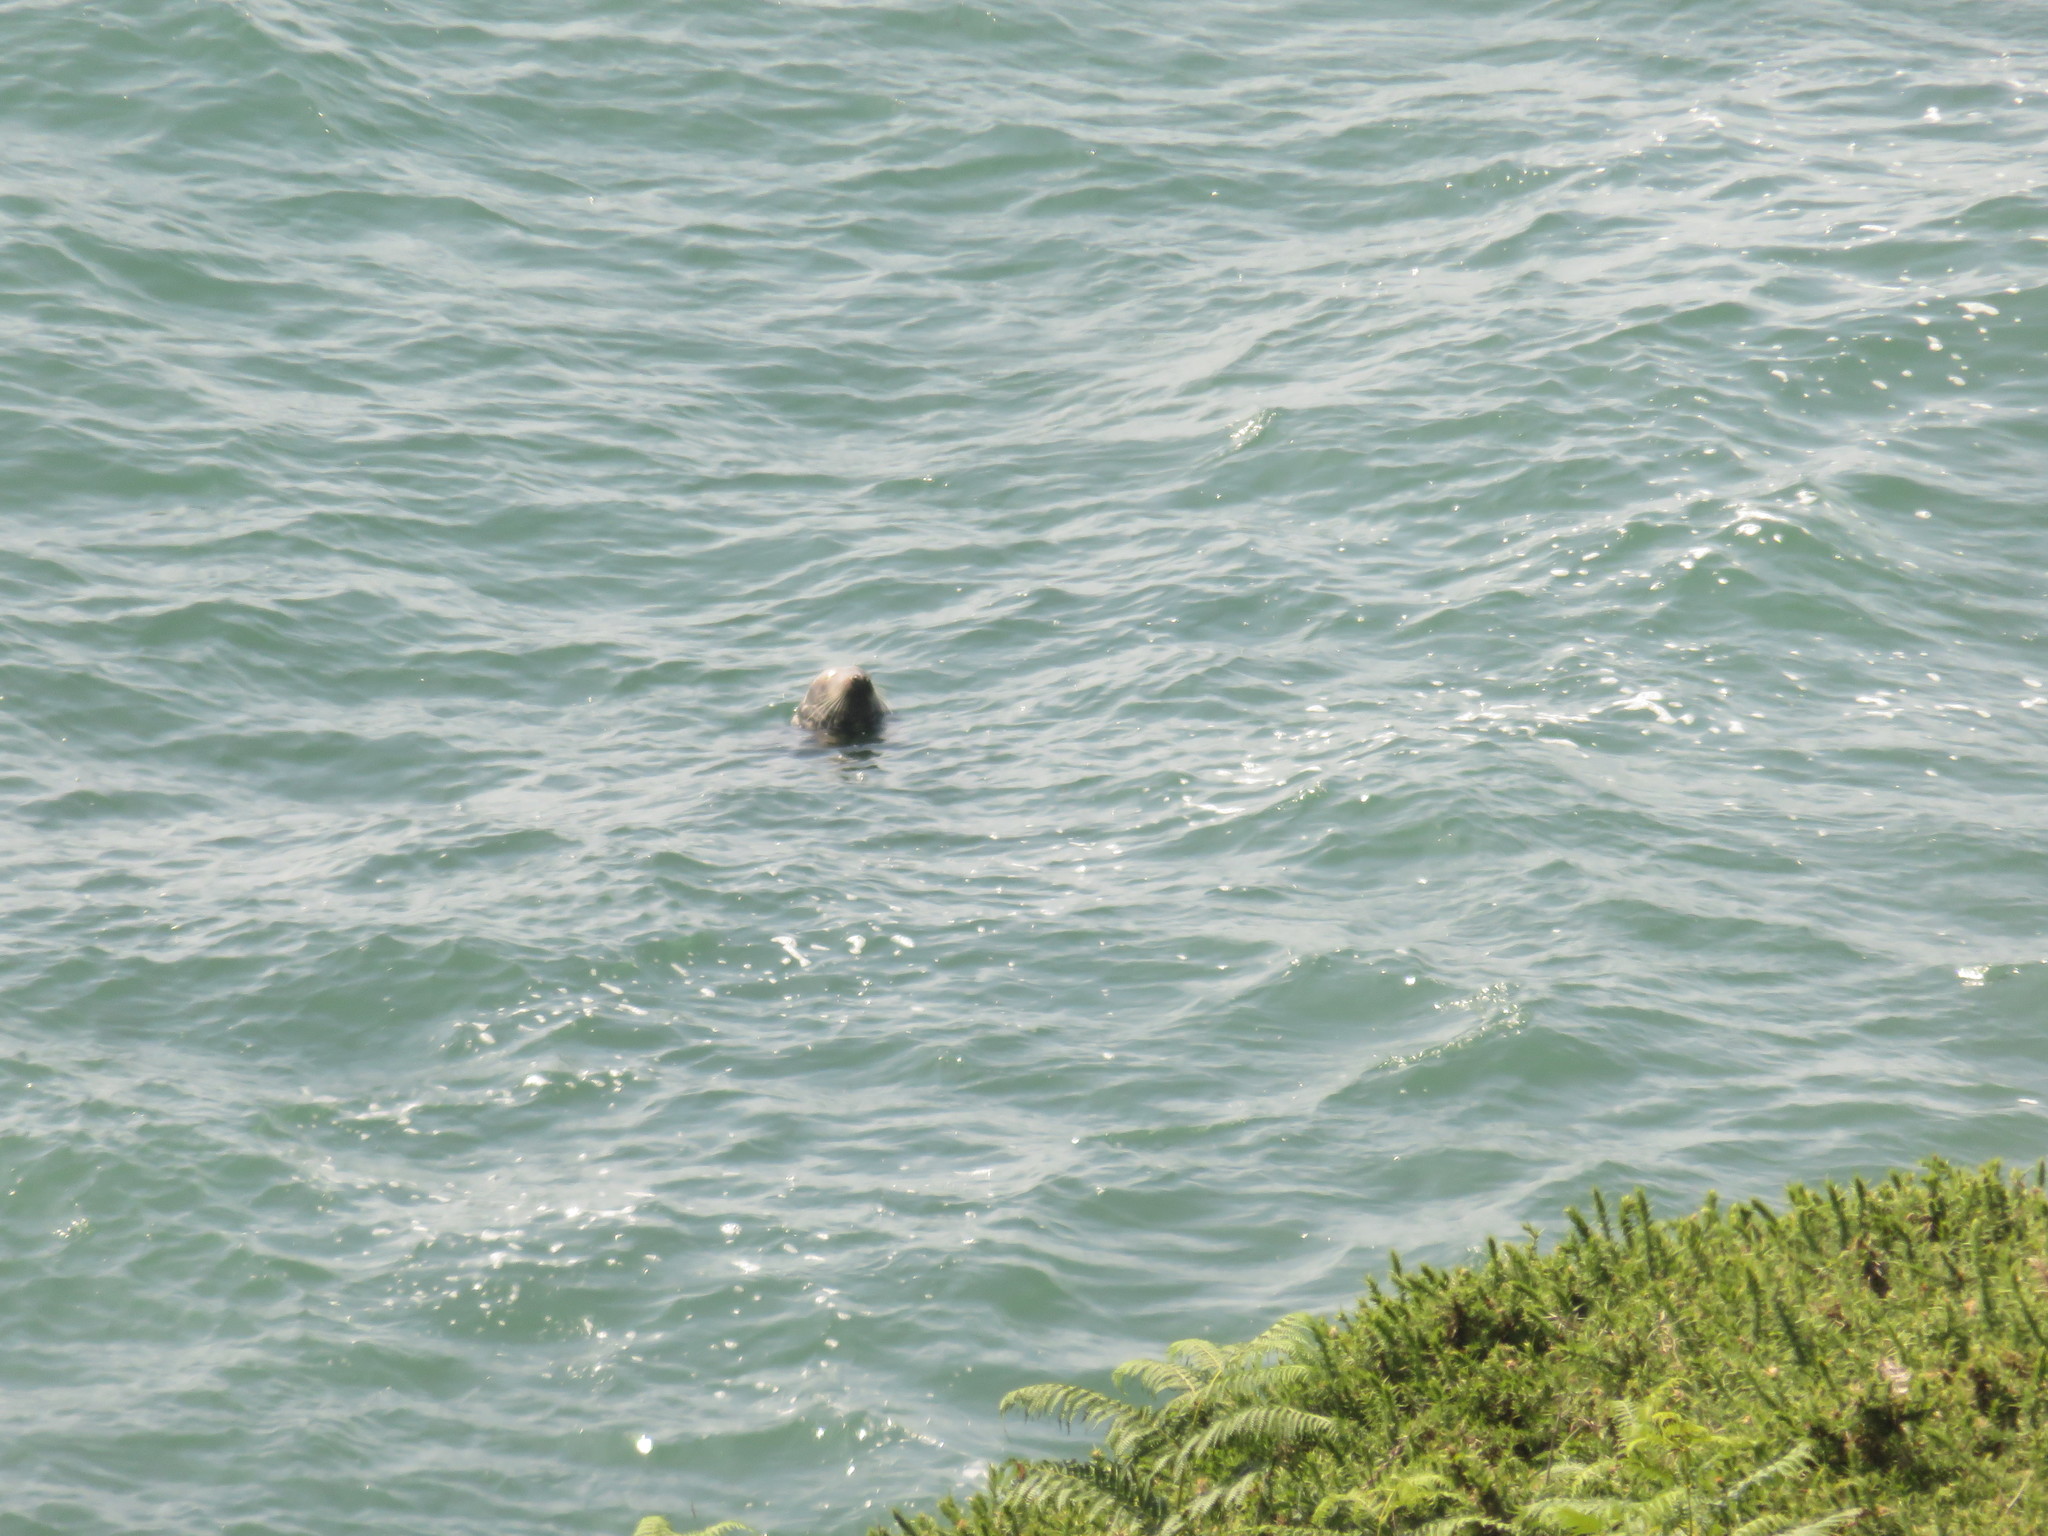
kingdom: Animalia
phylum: Chordata
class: Mammalia
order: Carnivora
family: Phocidae
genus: Halichoerus
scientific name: Halichoerus grypus
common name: Grey seal
